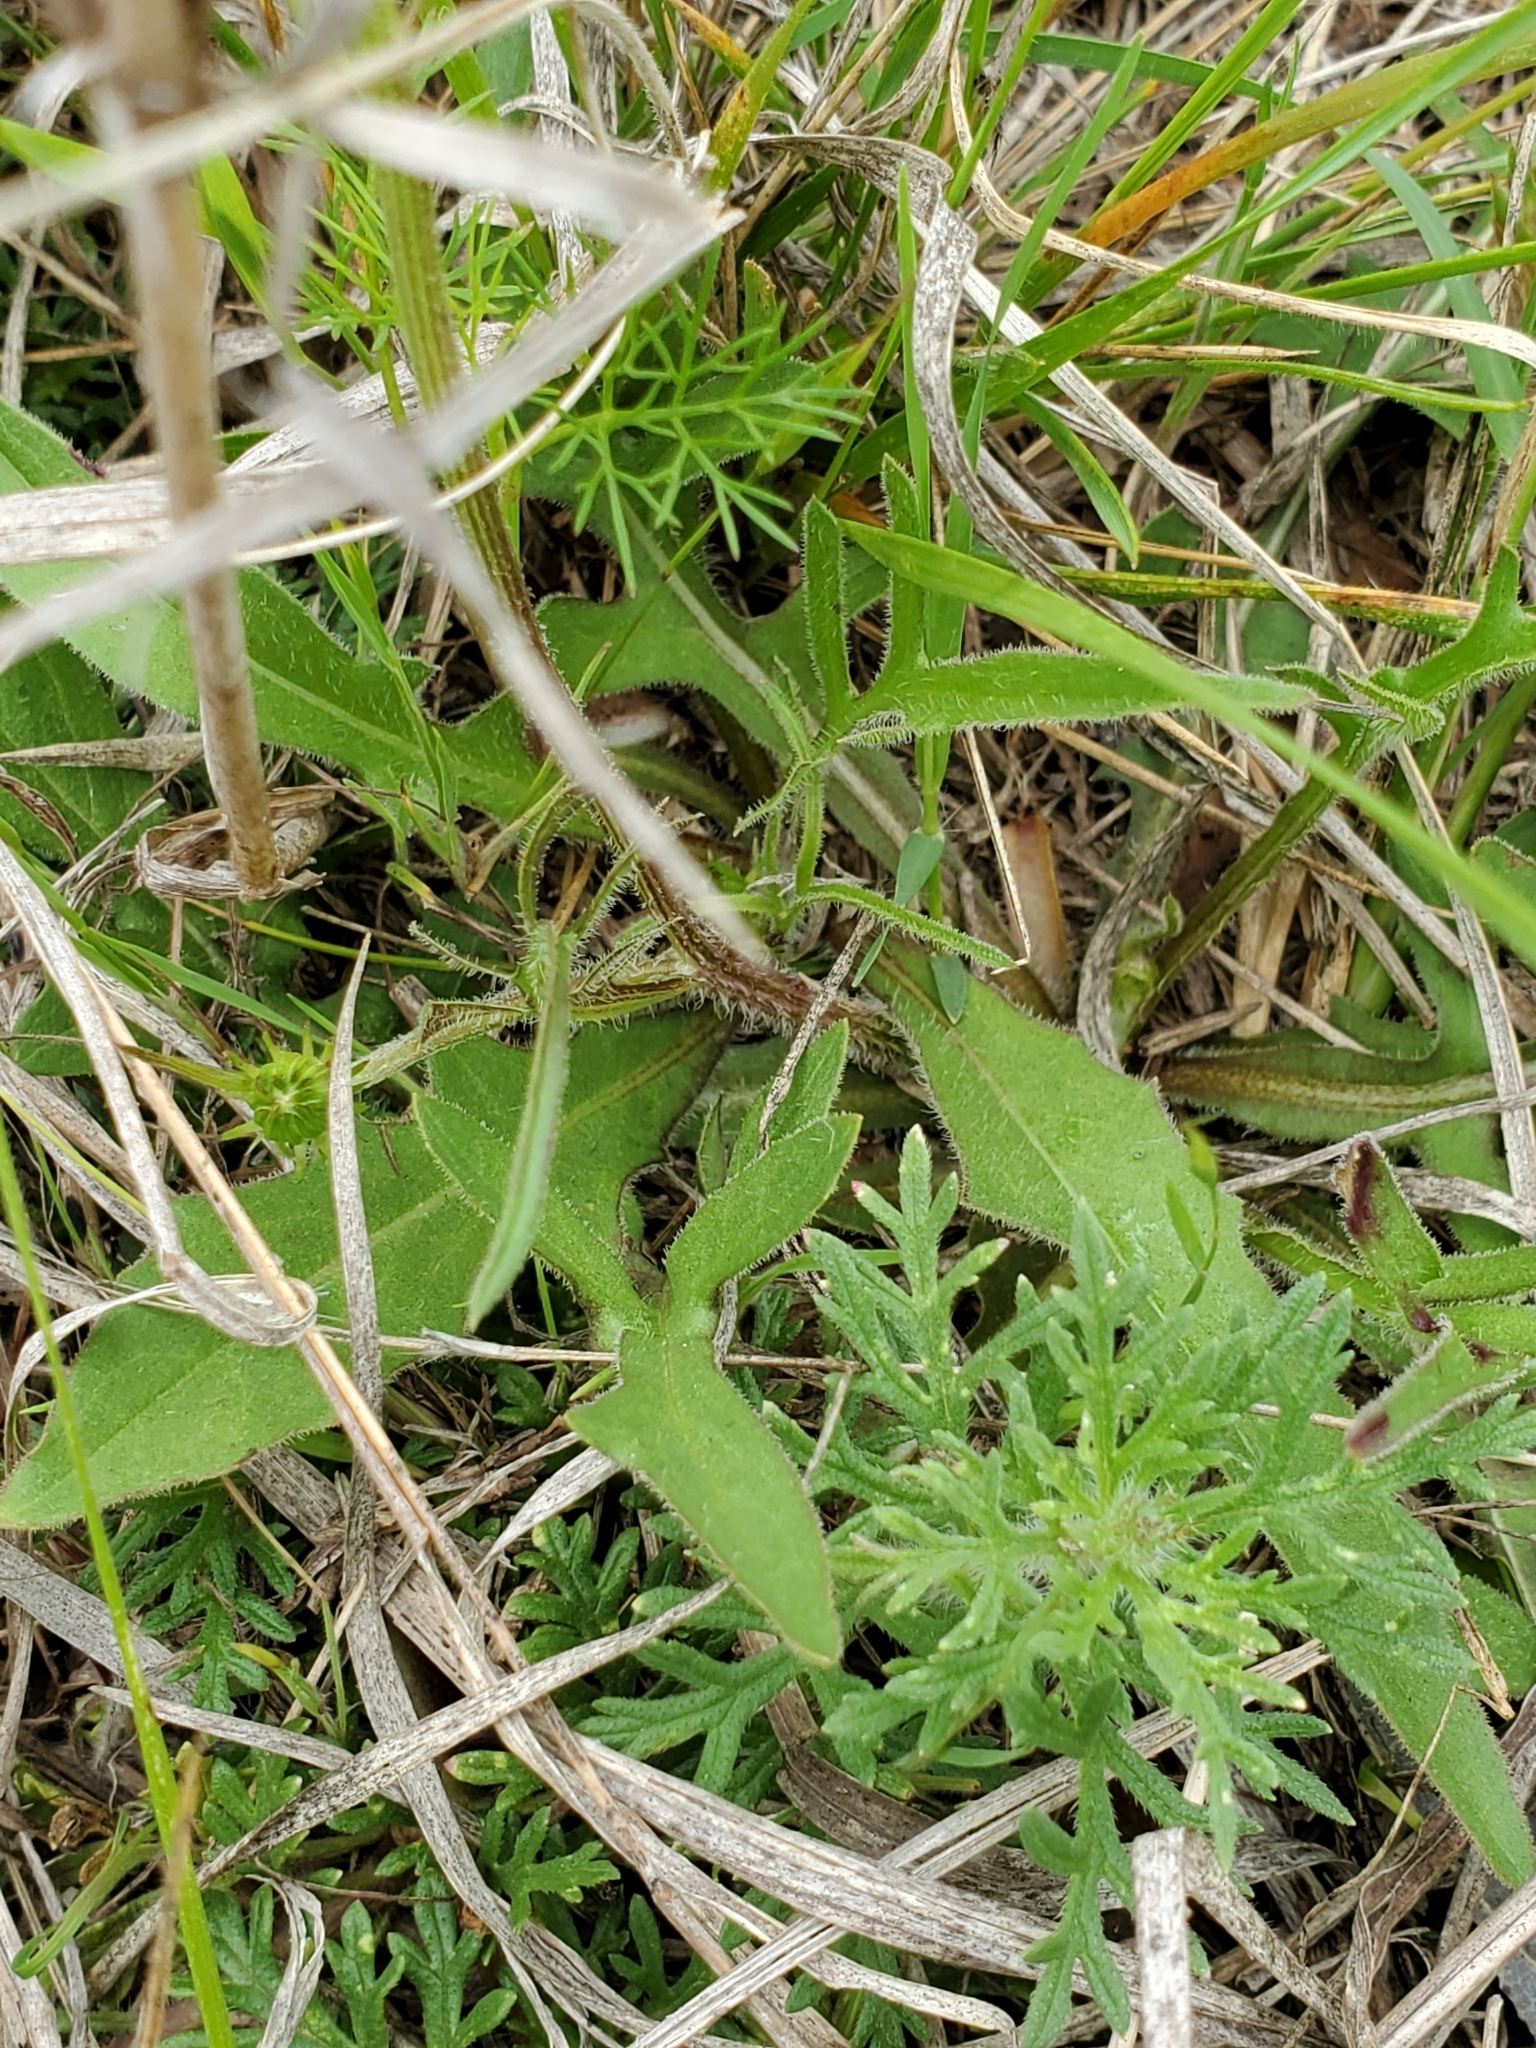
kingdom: Plantae
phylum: Tracheophyta
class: Magnoliopsida
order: Asterales
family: Asteraceae
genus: Pyrrhopappus
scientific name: Pyrrhopappus pauciflorus
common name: Texas false dandelion
